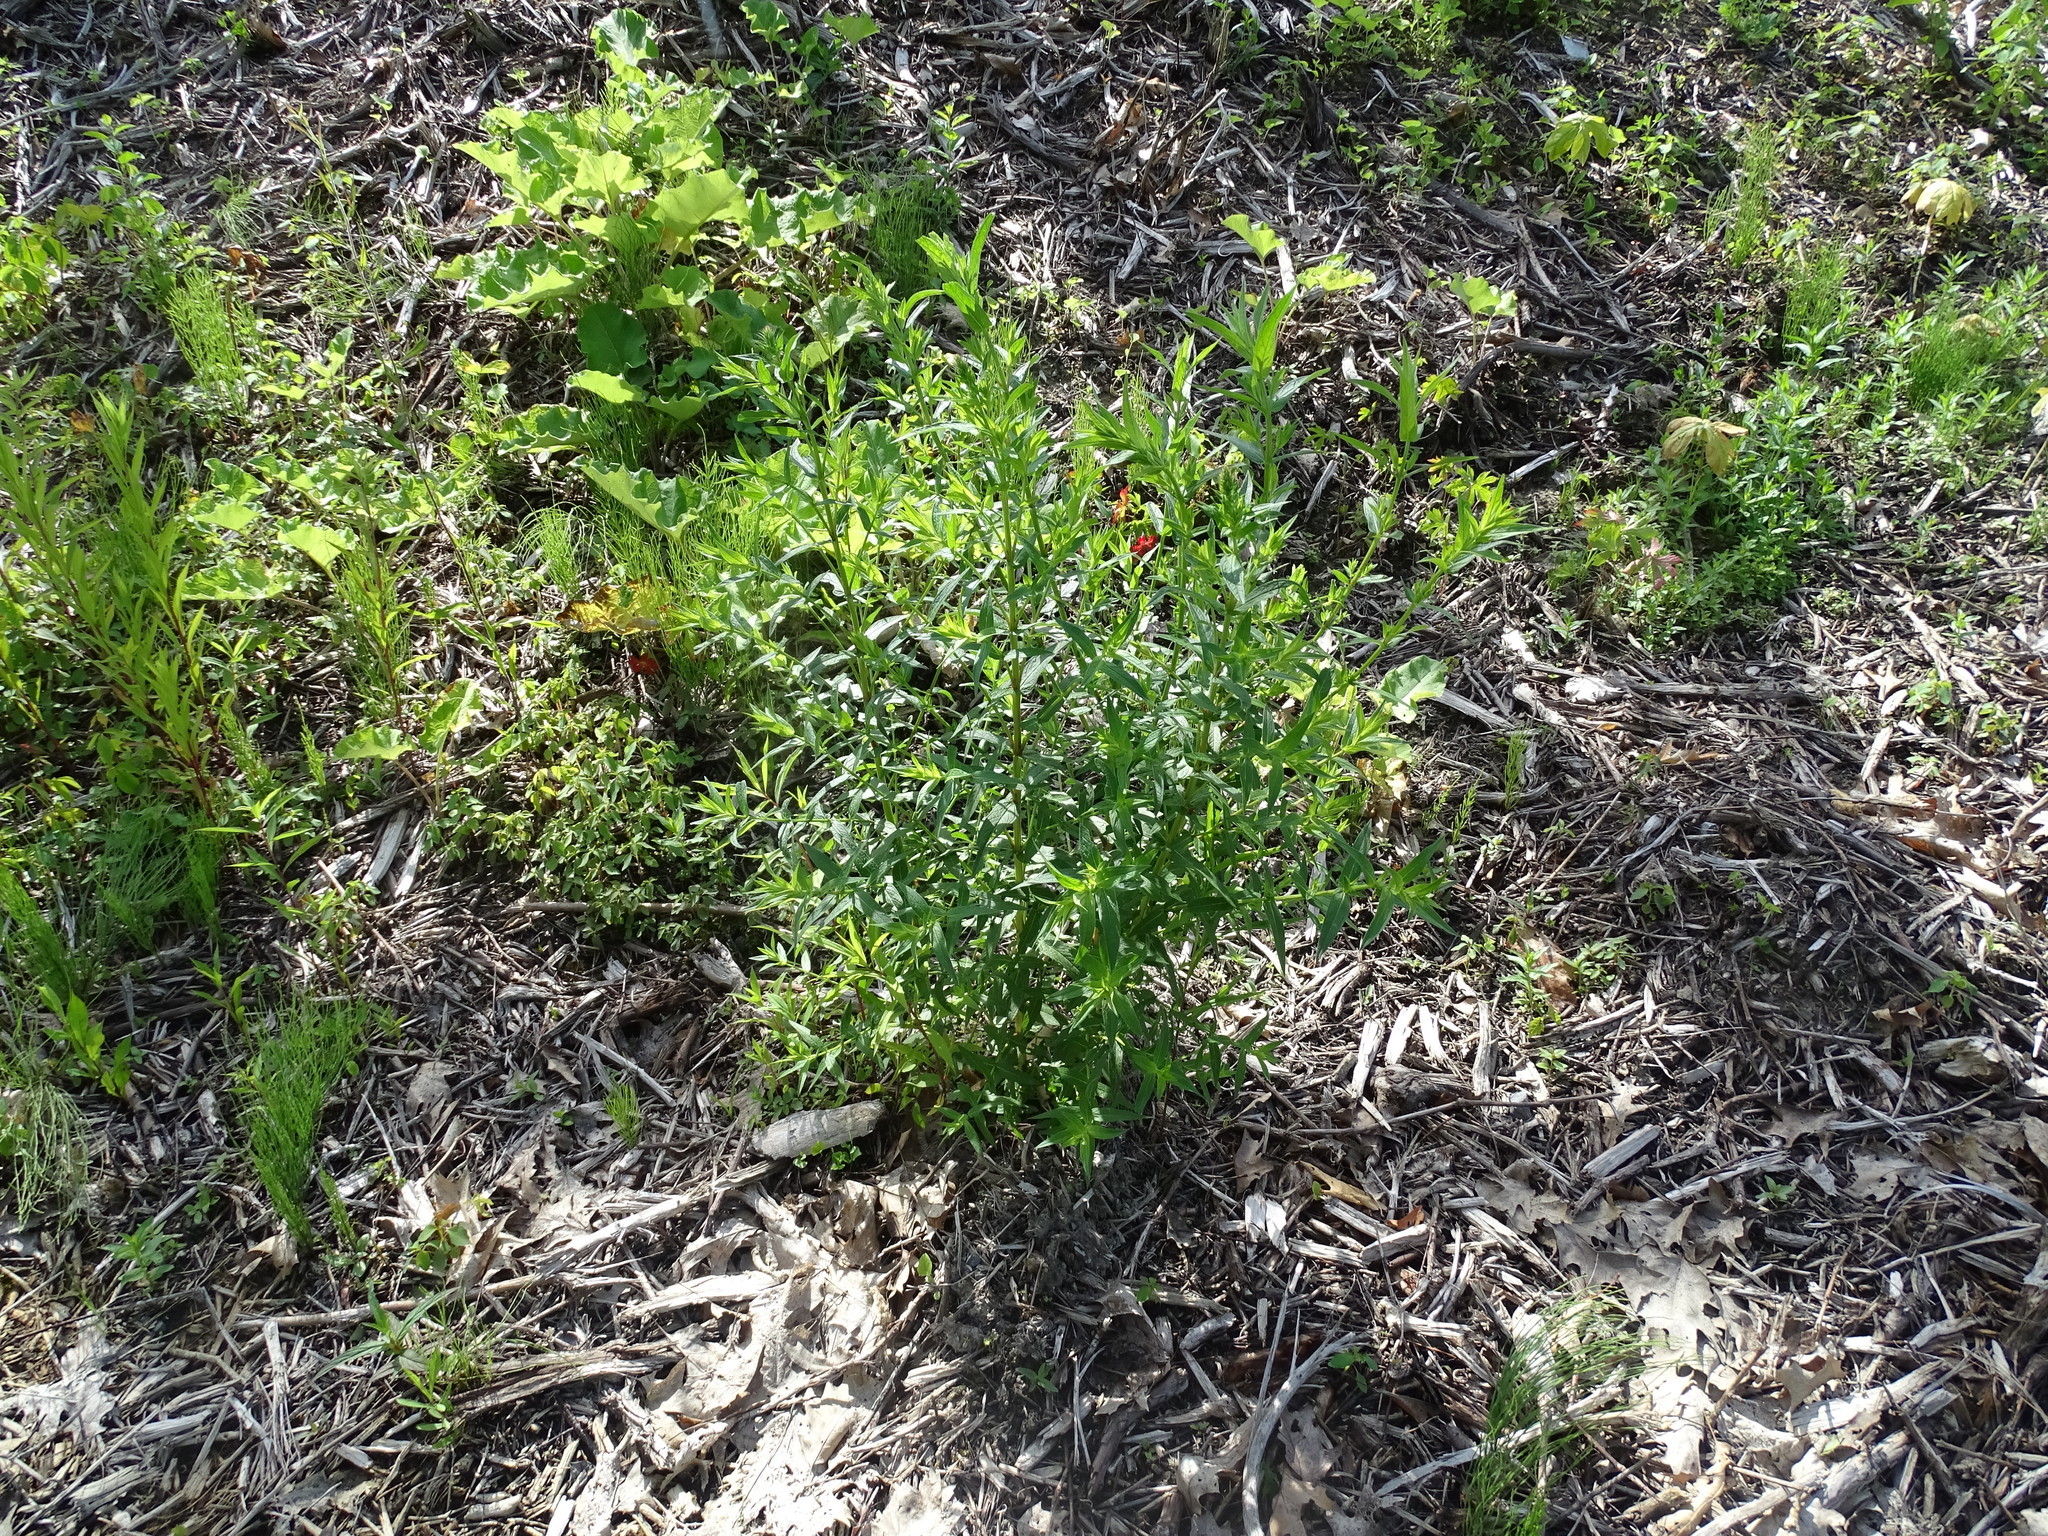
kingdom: Plantae
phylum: Tracheophyta
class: Magnoliopsida
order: Myrtales
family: Lythraceae
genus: Lythrum
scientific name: Lythrum salicaria
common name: Purple loosestrife
